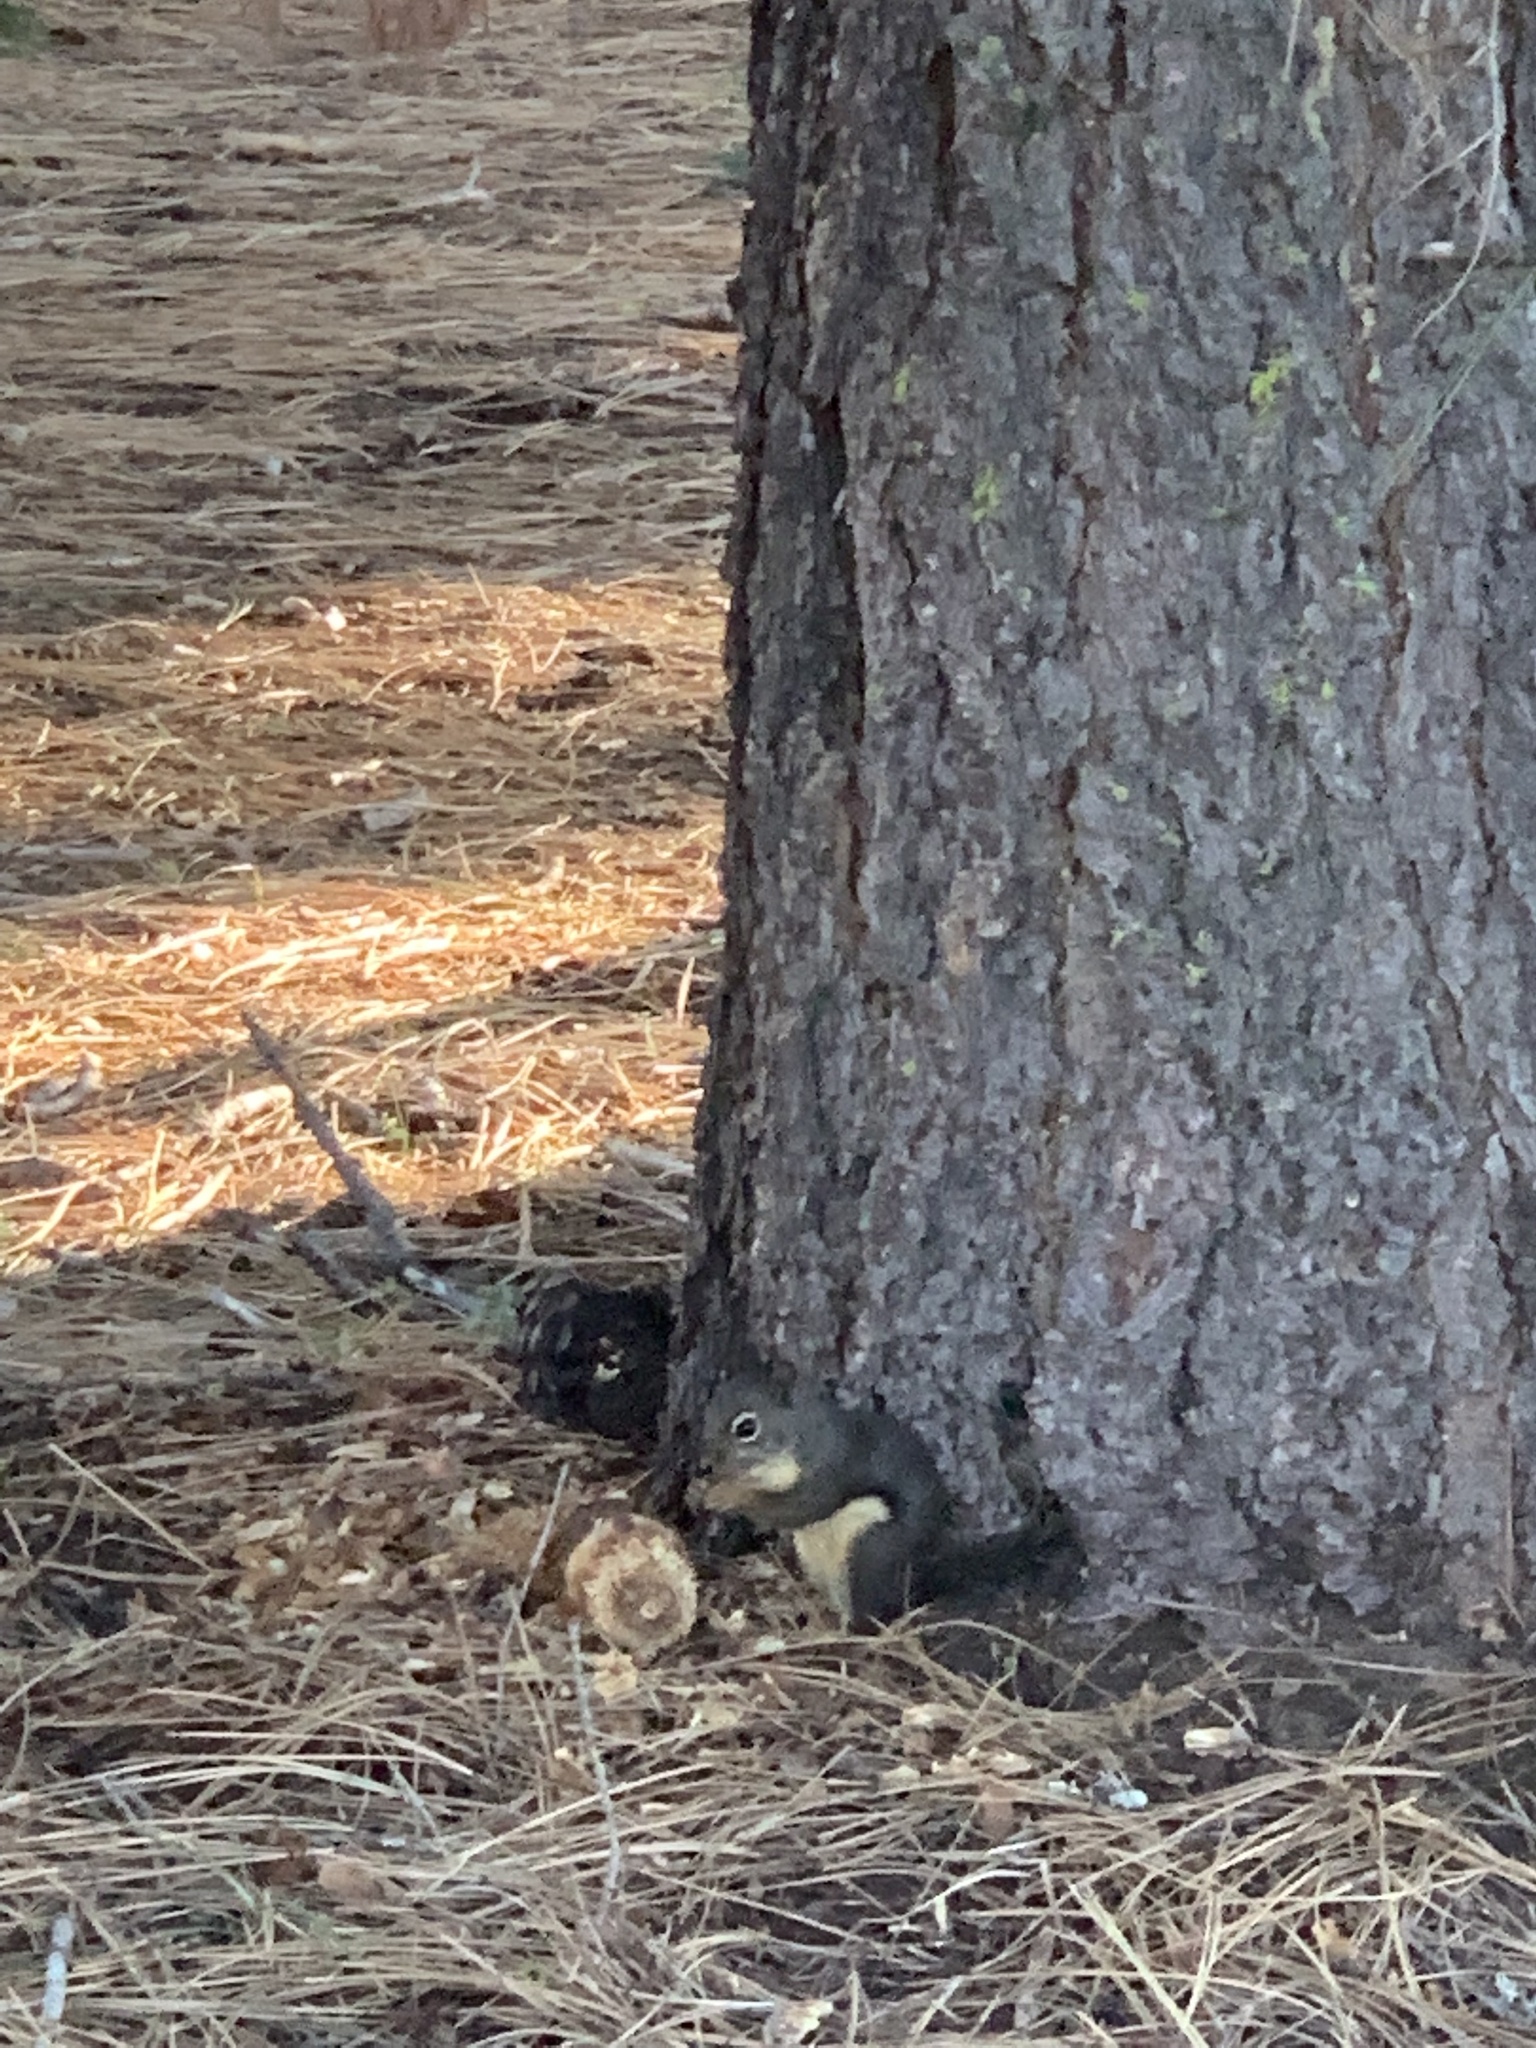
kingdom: Animalia
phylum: Chordata
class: Mammalia
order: Rodentia
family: Sciuridae
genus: Tamiasciurus
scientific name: Tamiasciurus douglasii
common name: Douglas's squirrel
